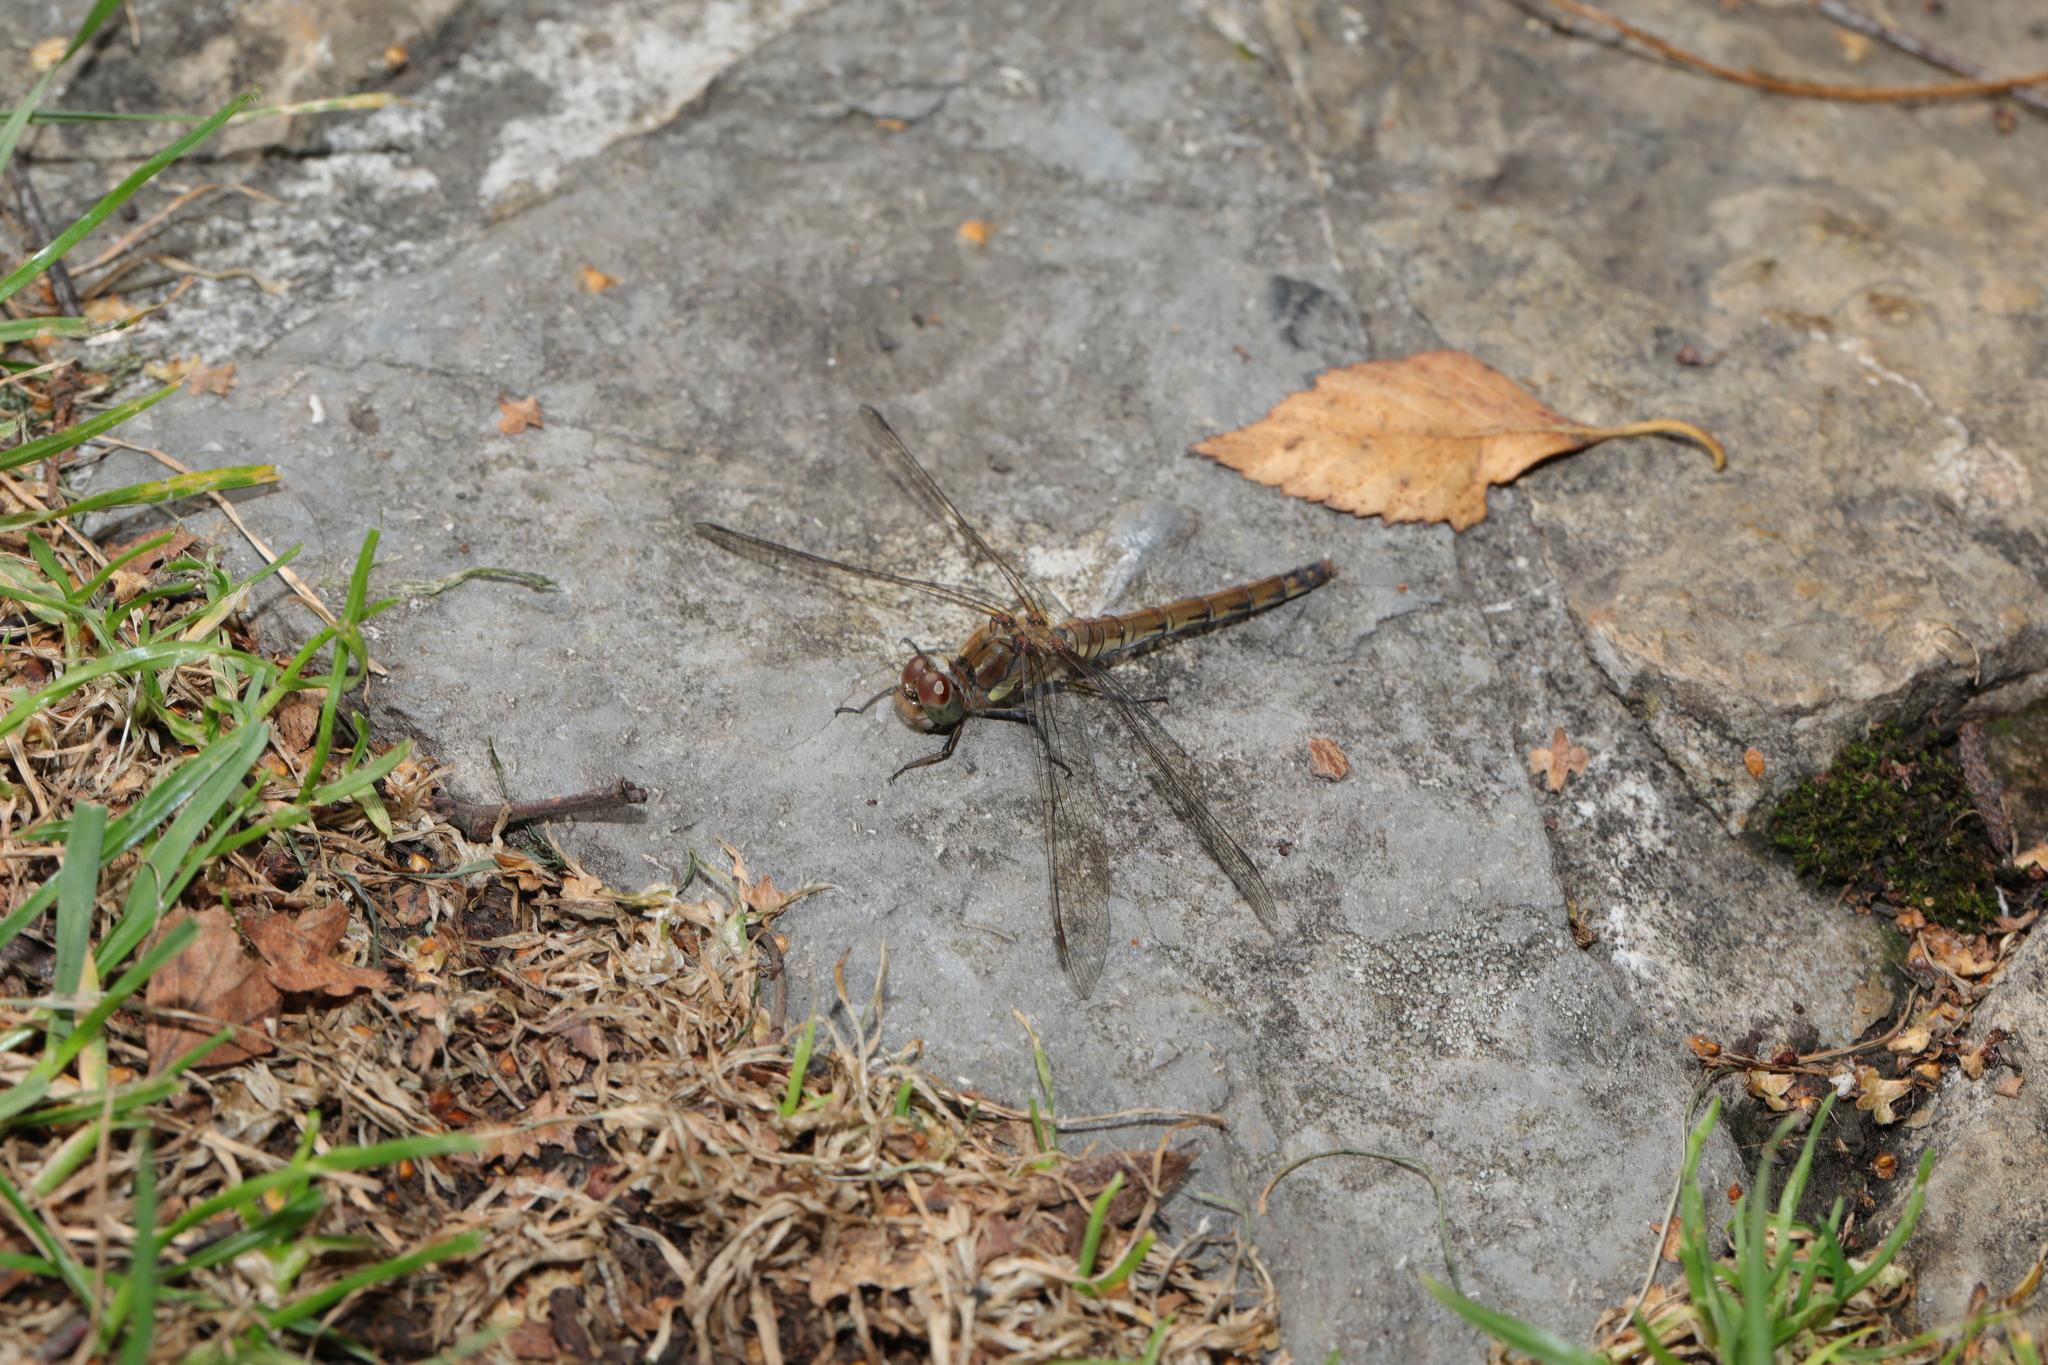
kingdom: Animalia
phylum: Arthropoda
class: Insecta
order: Odonata
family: Libellulidae
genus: Sympetrum
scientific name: Sympetrum striolatum
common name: Common darter
